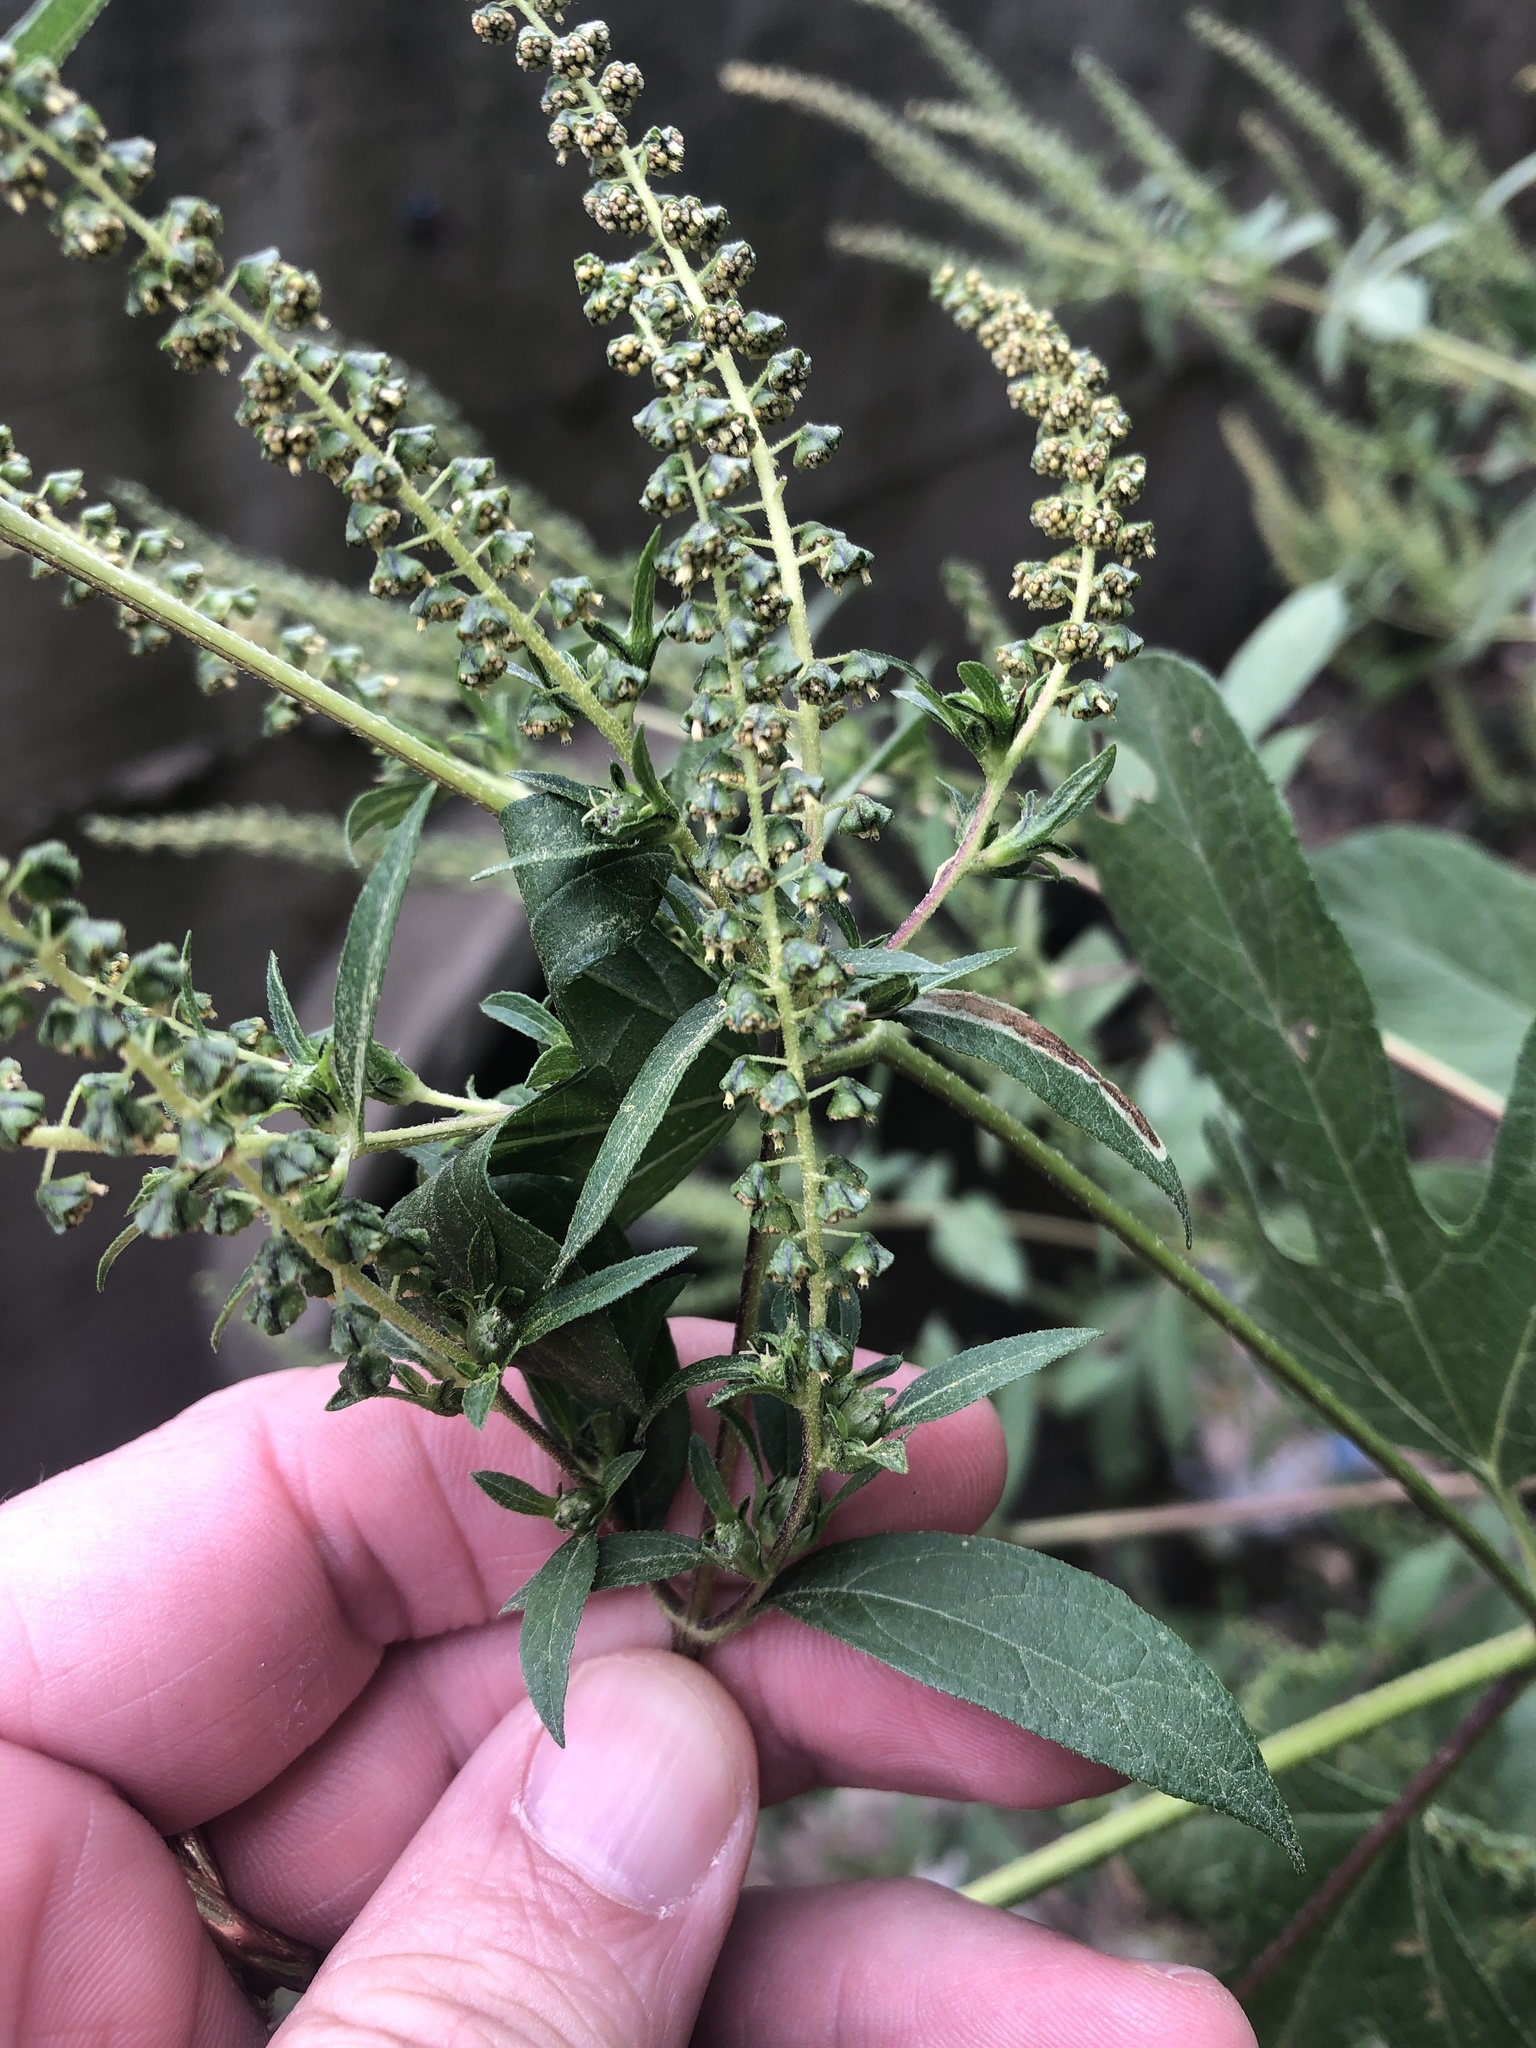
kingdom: Plantae
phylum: Tracheophyta
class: Magnoliopsida
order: Asterales
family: Asteraceae
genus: Ambrosia
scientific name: Ambrosia trifida
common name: Giant ragweed
